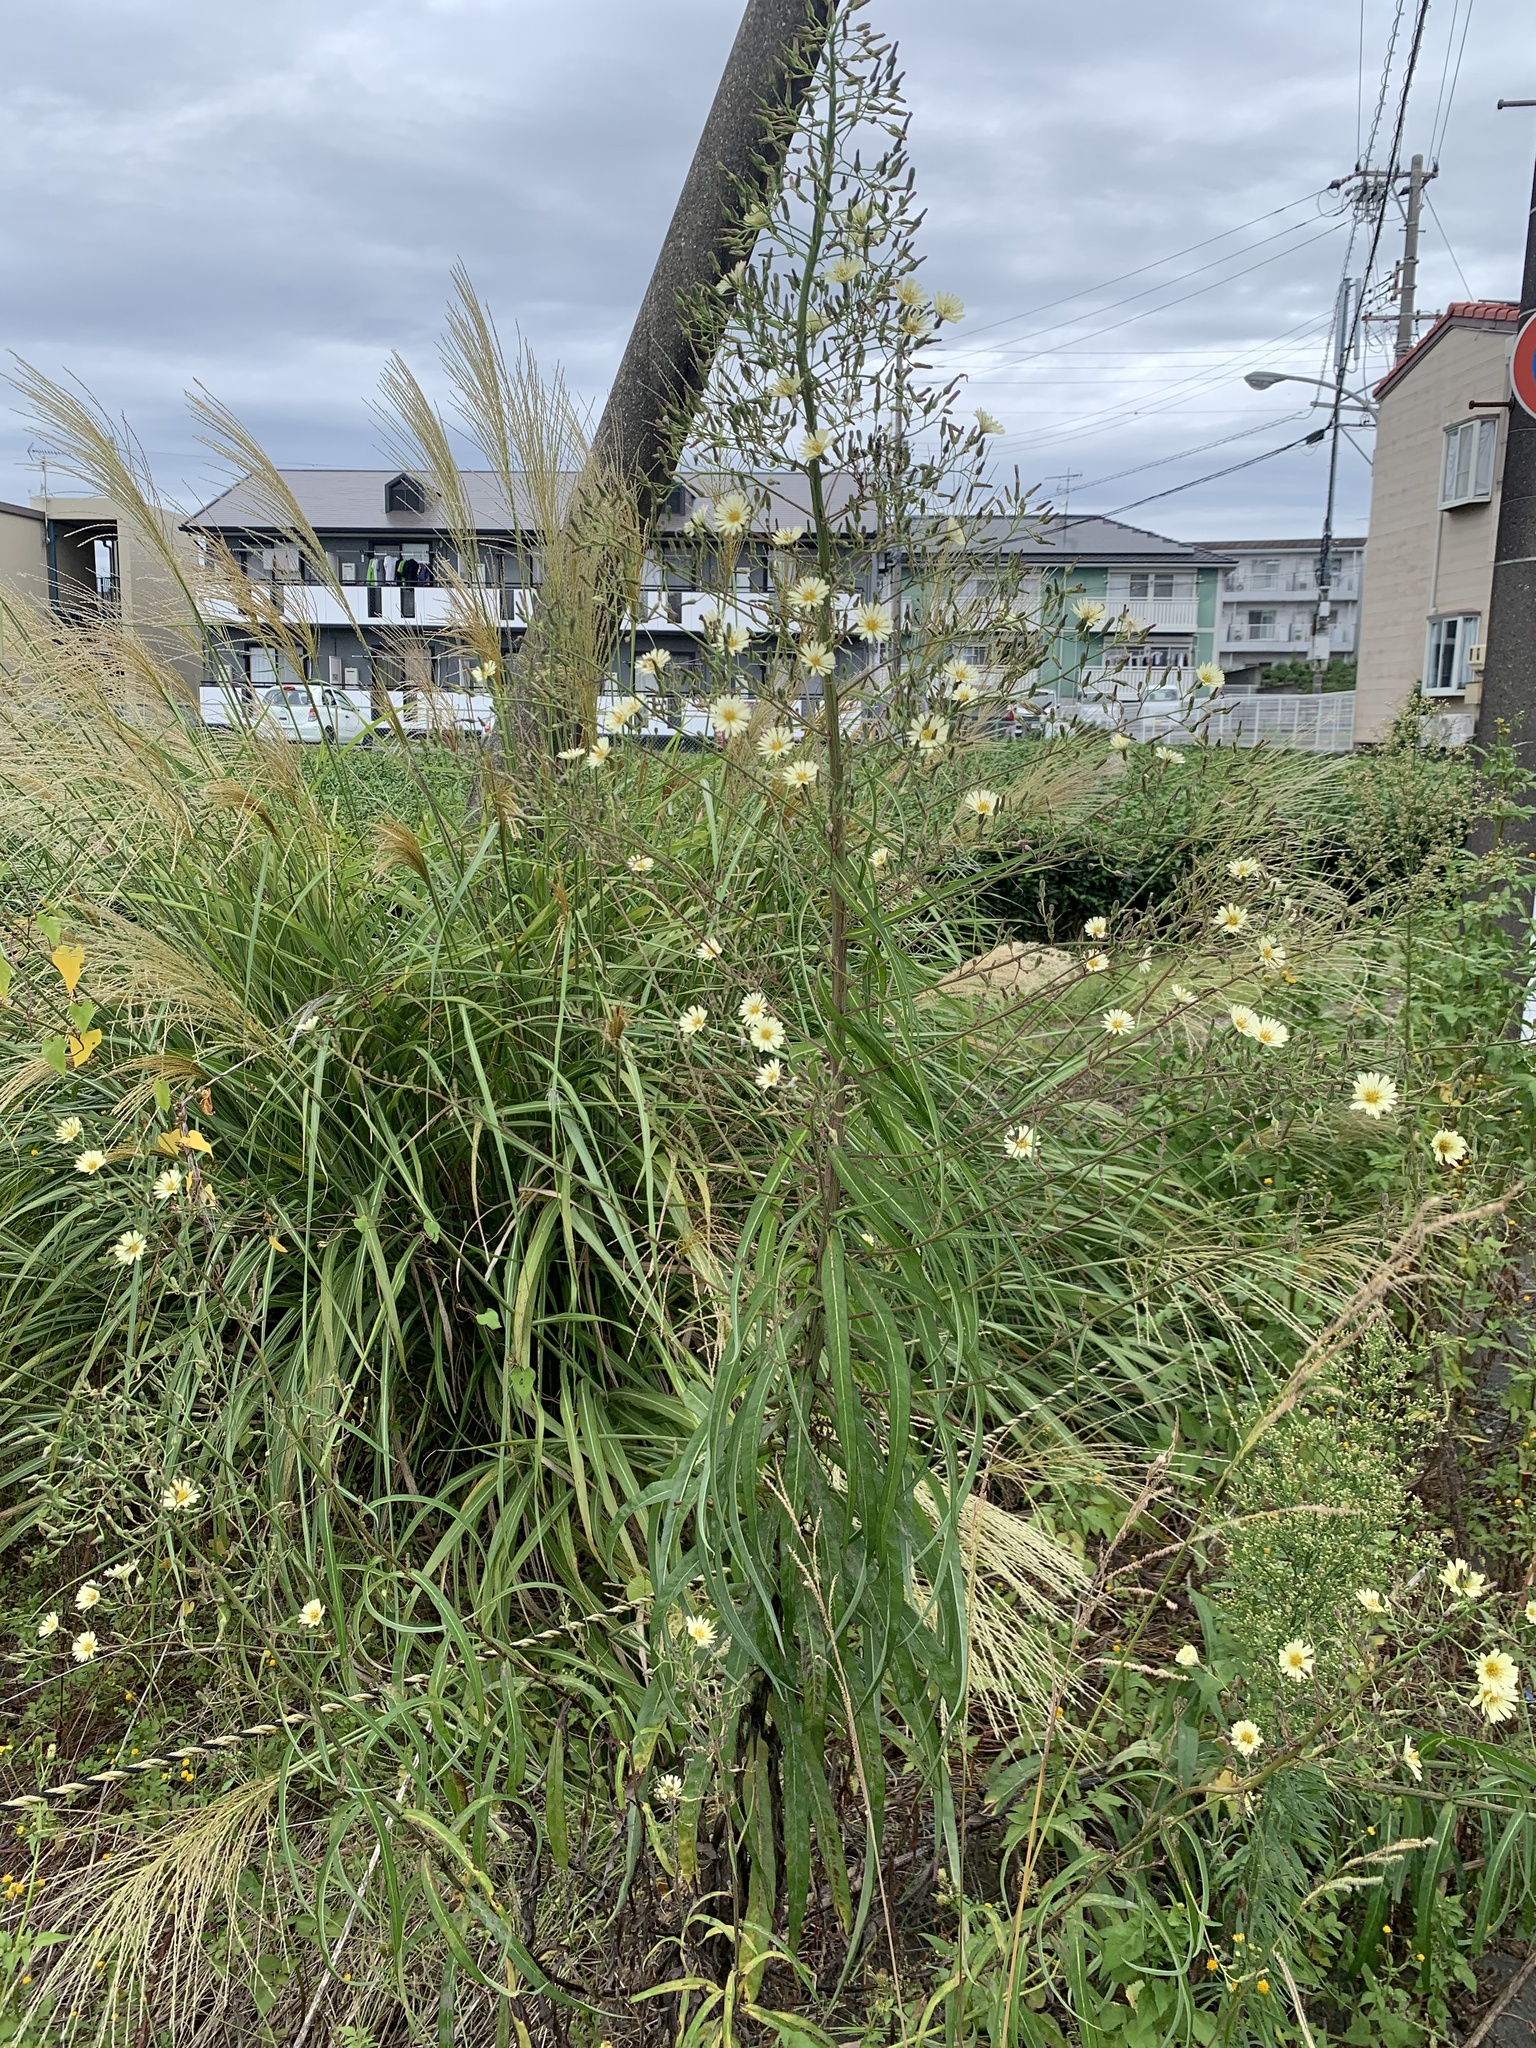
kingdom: Plantae
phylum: Tracheophyta
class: Magnoliopsida
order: Asterales
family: Asteraceae
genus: Lactuca
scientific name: Lactuca indica
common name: Wild lettuce
